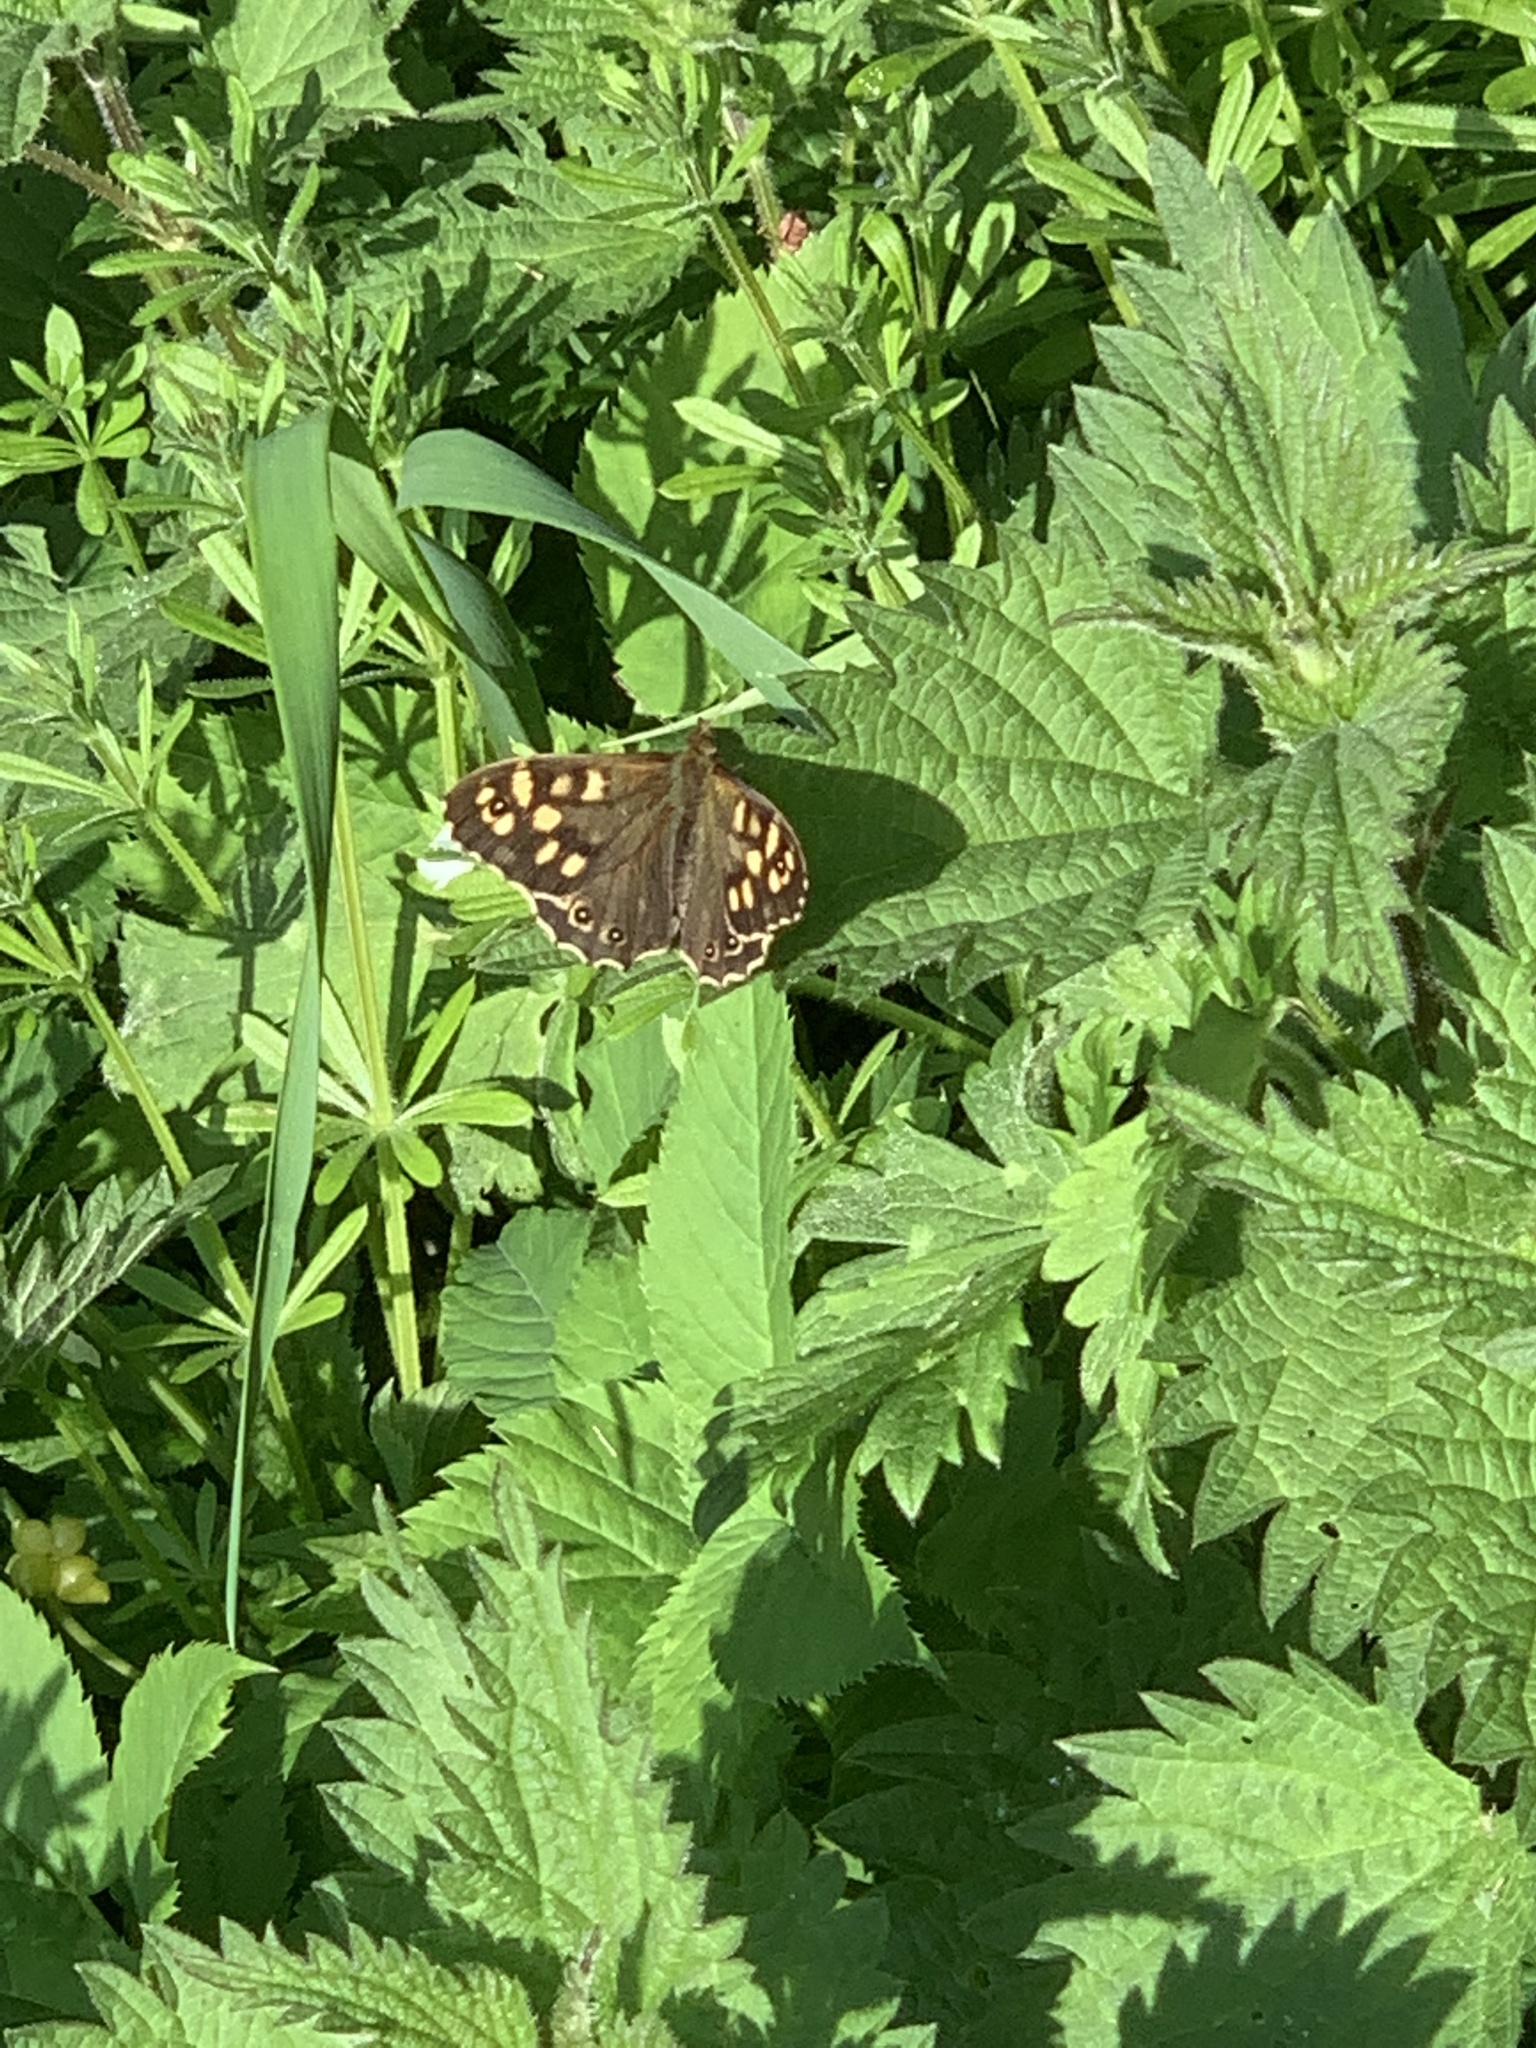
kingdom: Animalia
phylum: Arthropoda
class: Insecta
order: Lepidoptera
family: Nymphalidae
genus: Pararge
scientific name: Pararge aegeria
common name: Speckled wood
